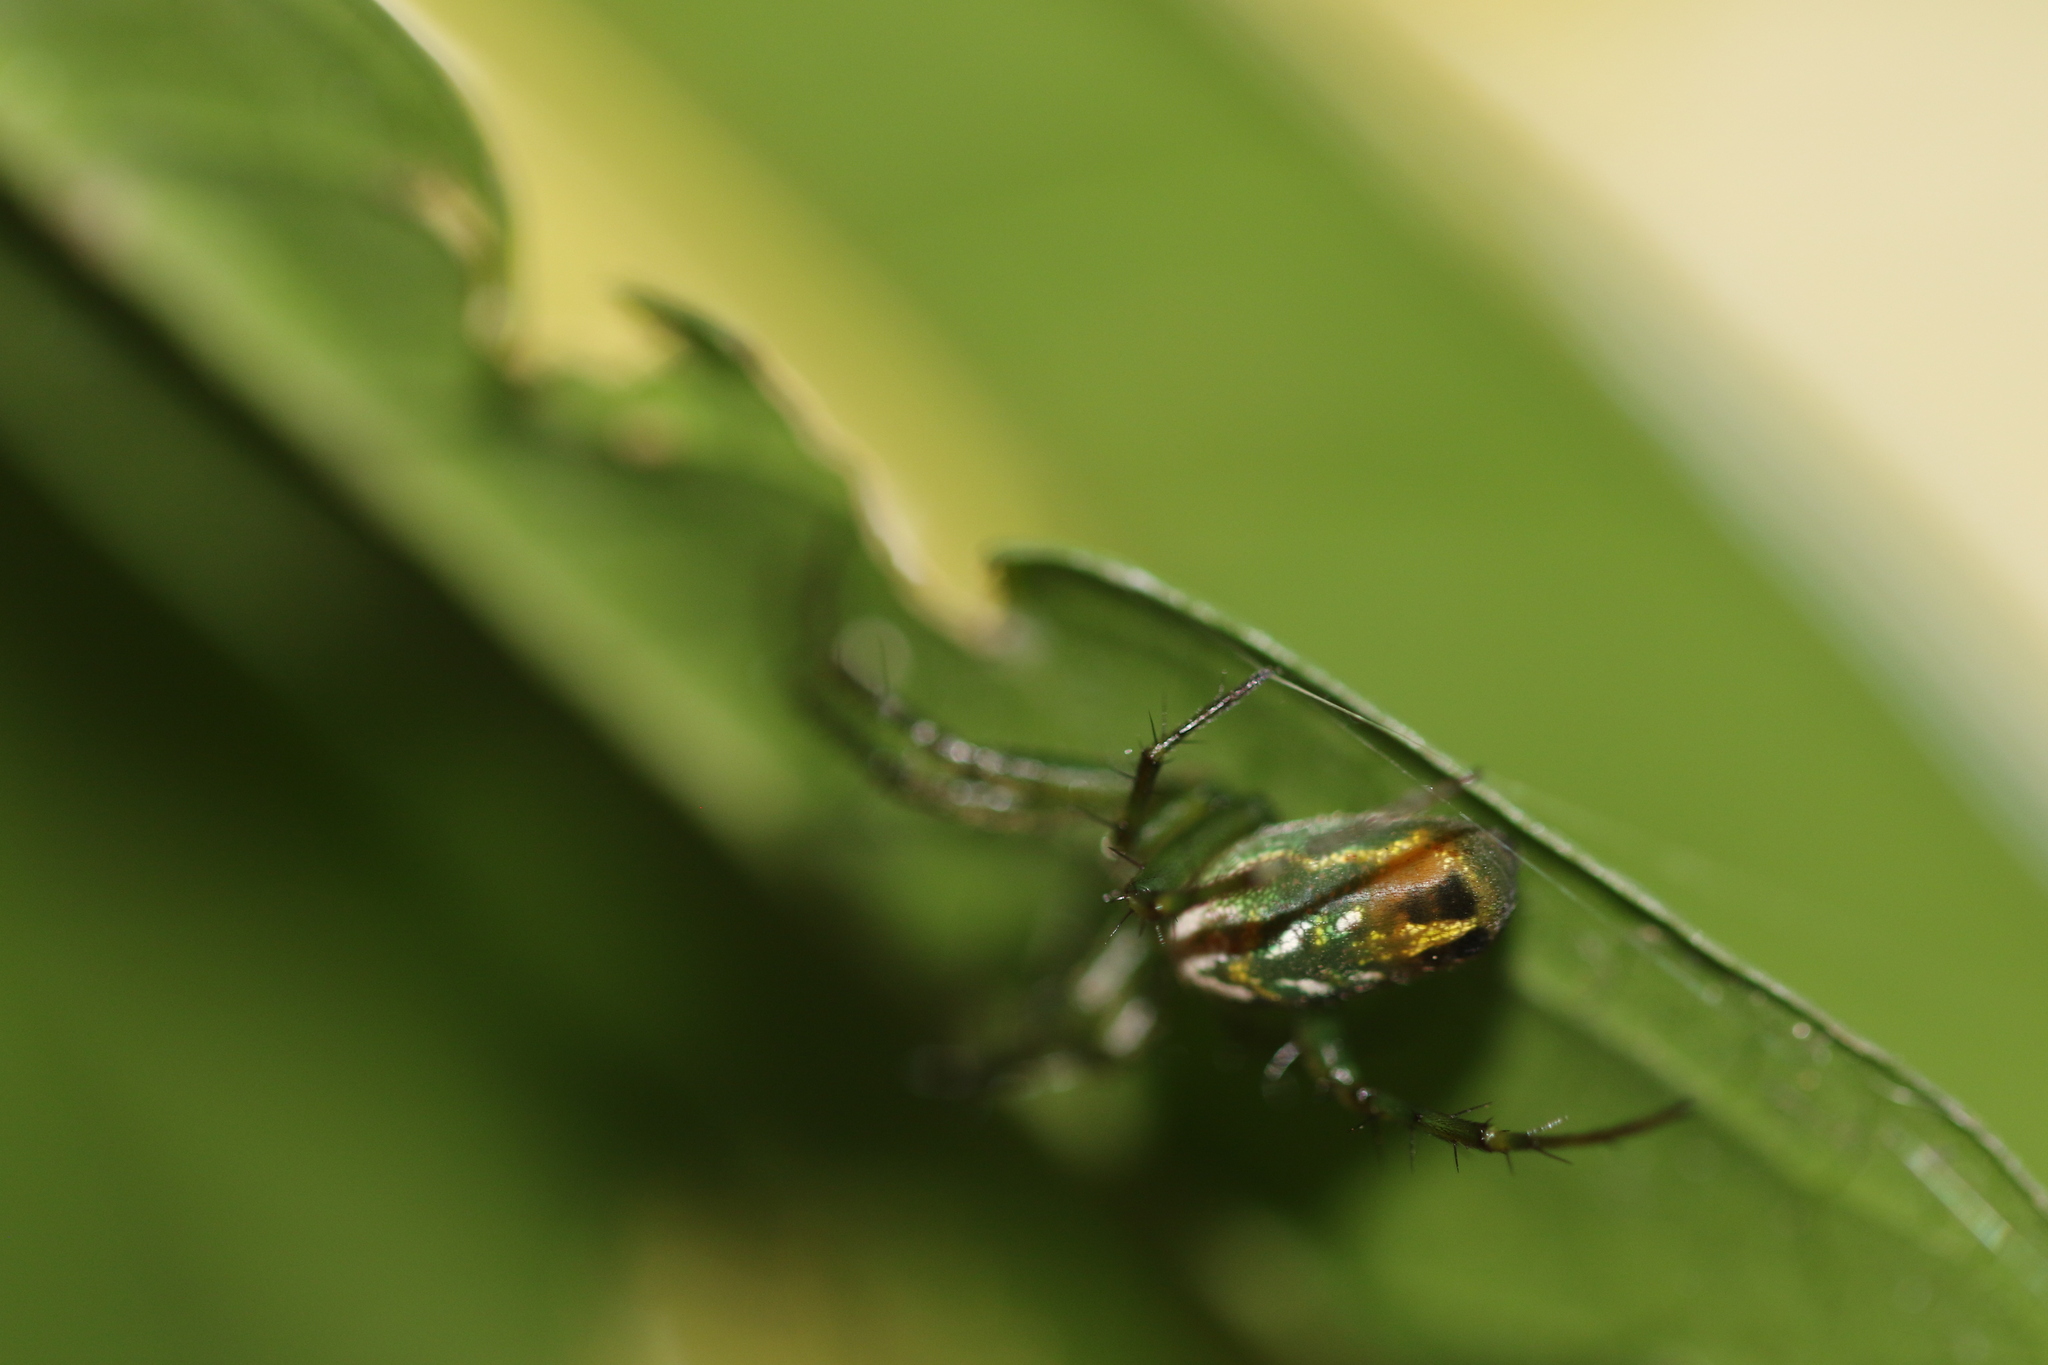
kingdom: Animalia
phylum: Arthropoda
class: Arachnida
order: Araneae
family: Araneidae
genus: Mangora
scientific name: Mangora strenua
